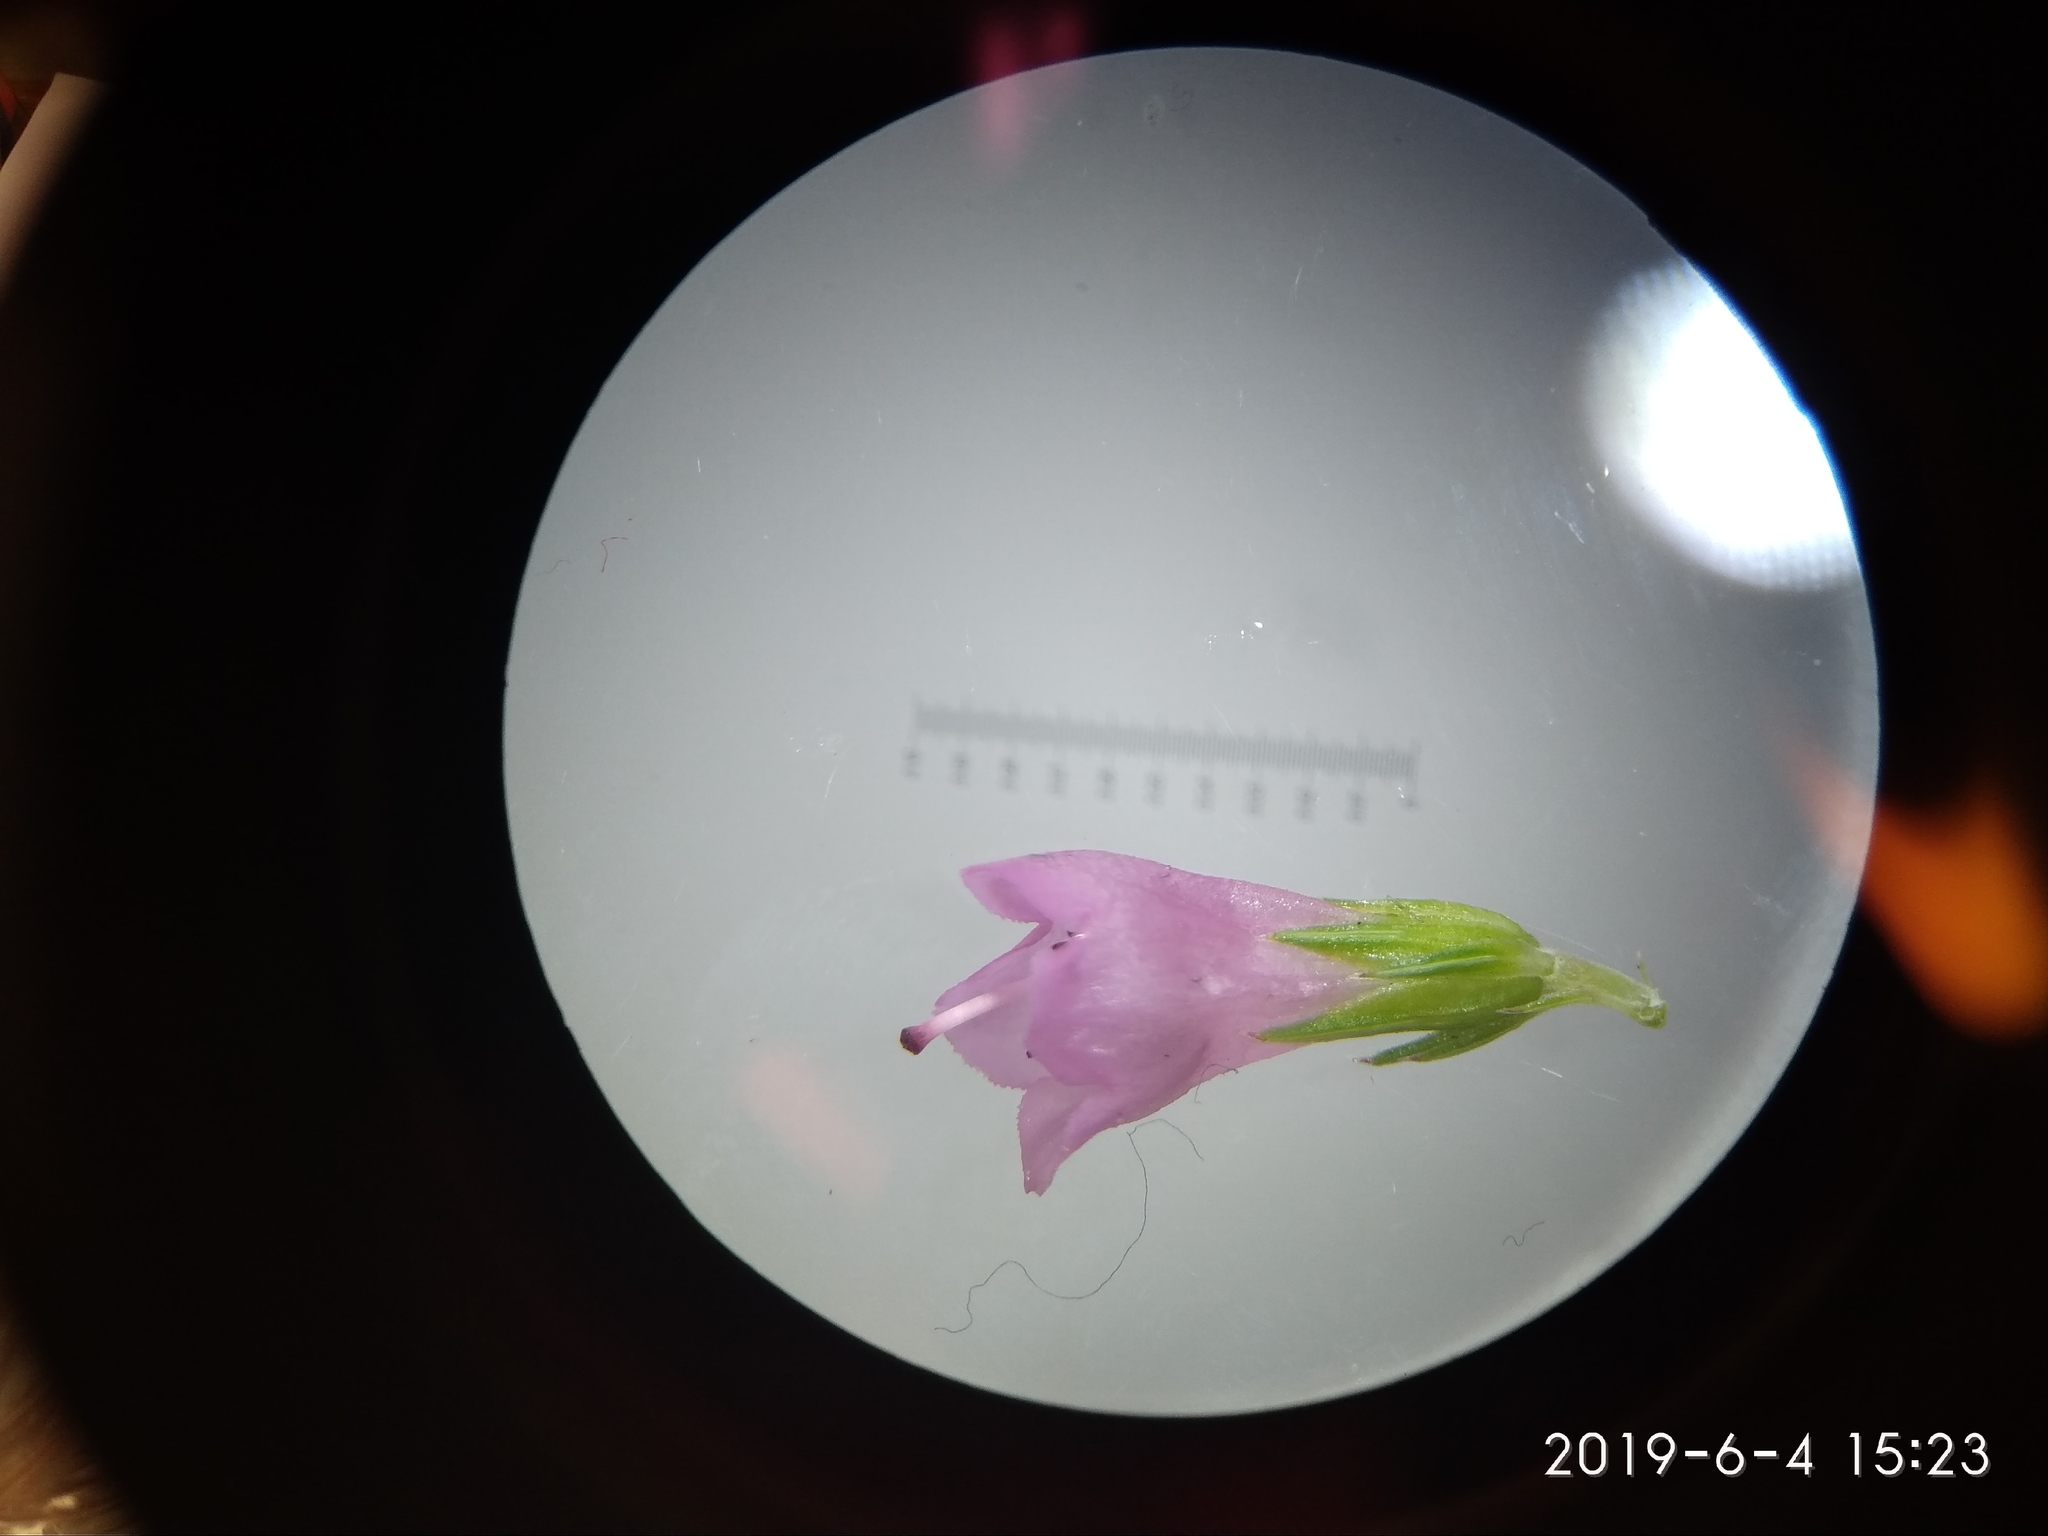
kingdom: Plantae
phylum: Tracheophyta
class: Magnoliopsida
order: Ericales
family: Ericaceae
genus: Erica
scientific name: Erica abietina
